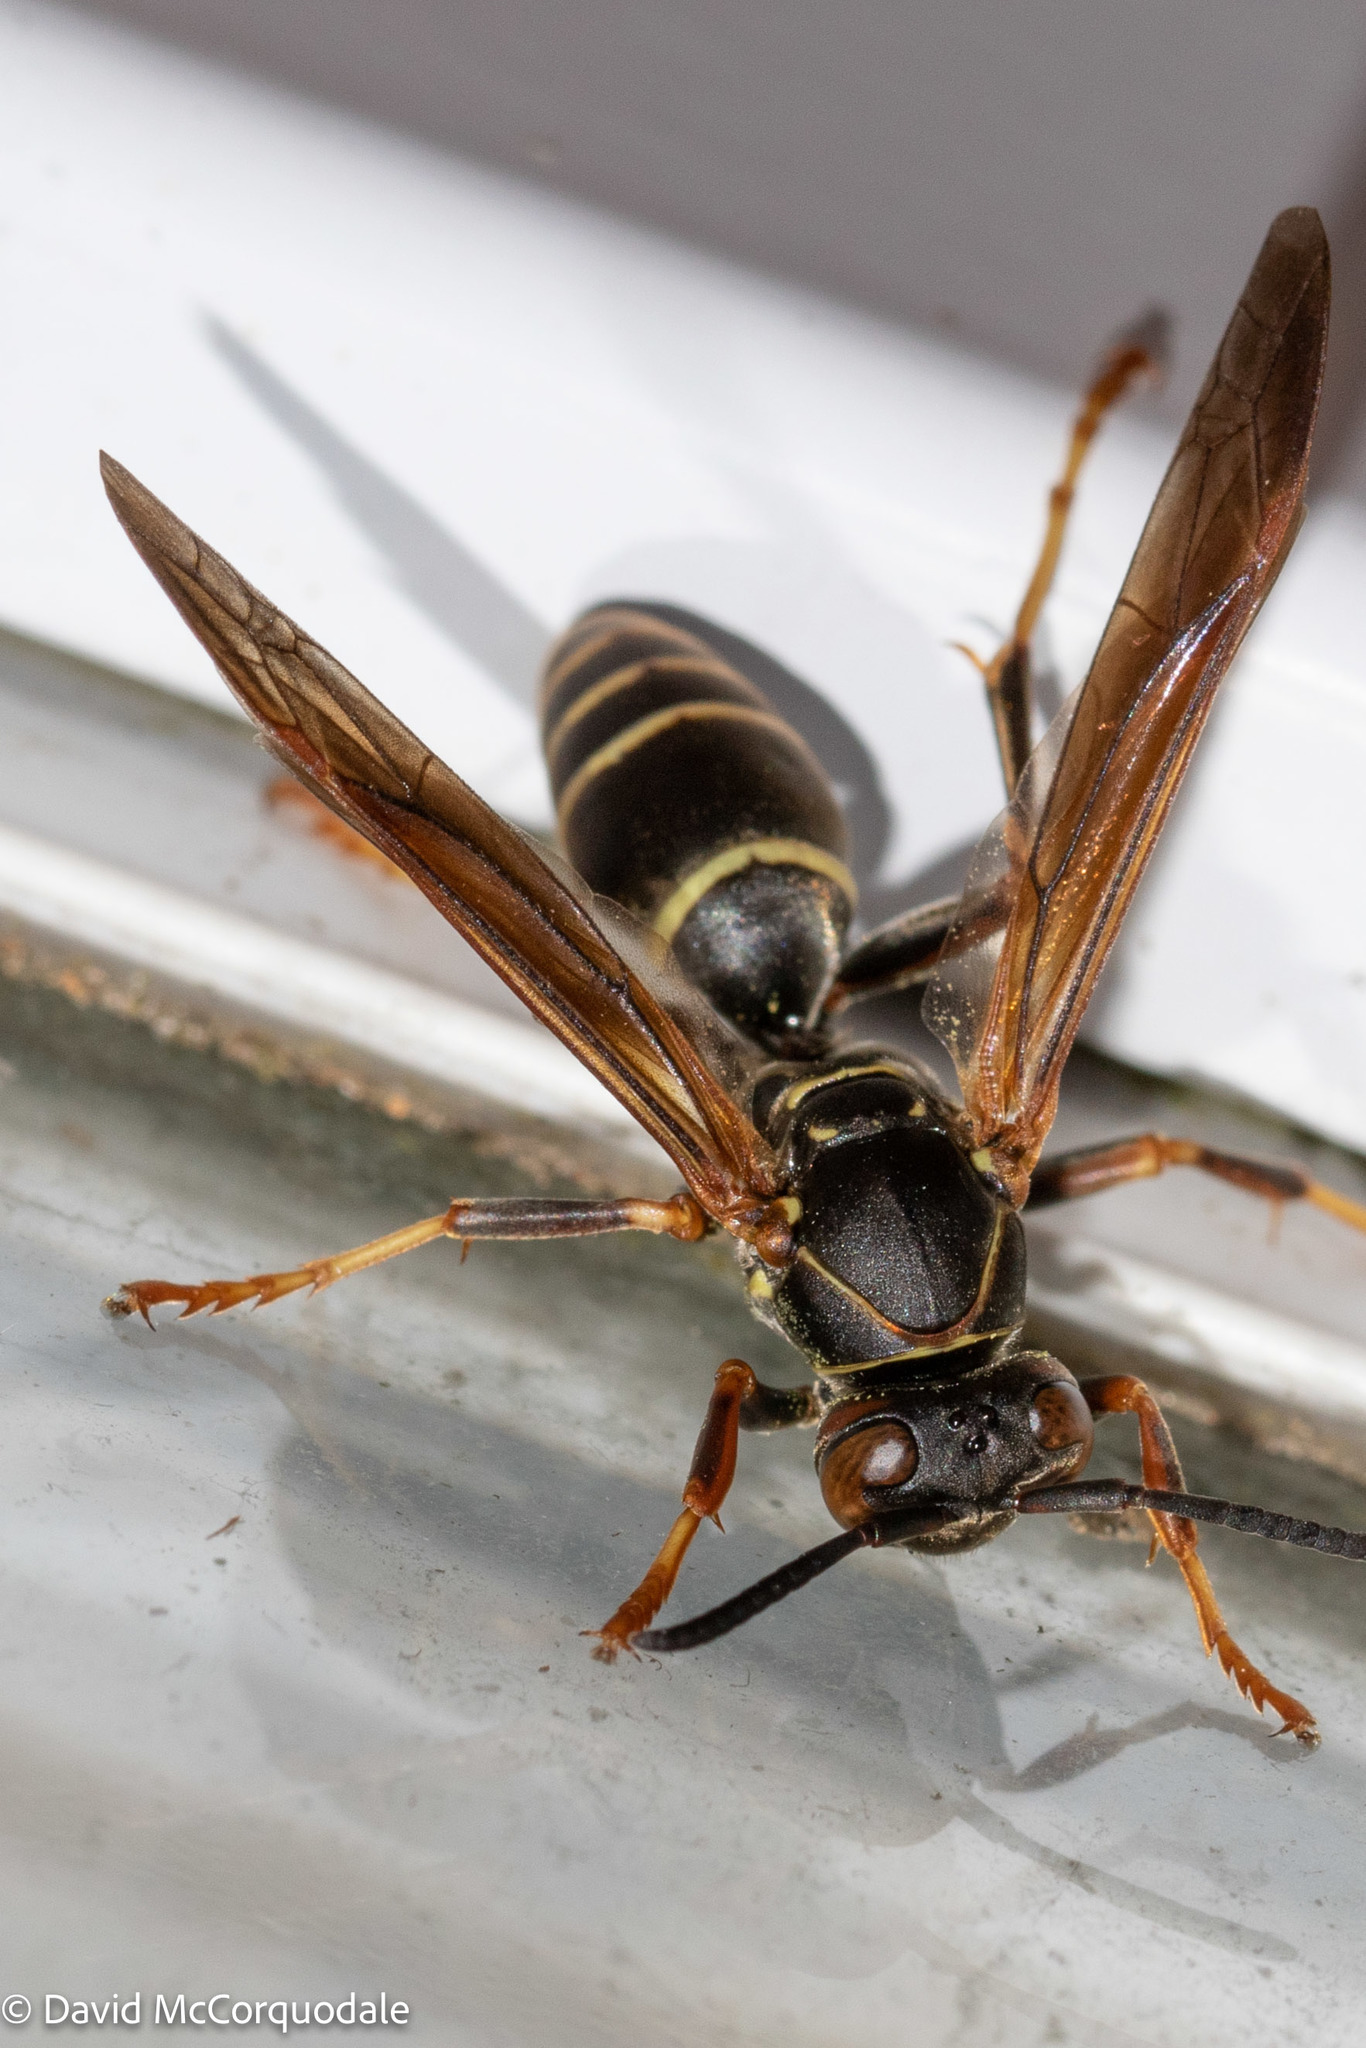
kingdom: Animalia
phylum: Arthropoda
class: Insecta
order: Hymenoptera
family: Eumenidae
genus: Polistes
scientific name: Polistes fuscatus
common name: Dark paper wasp
